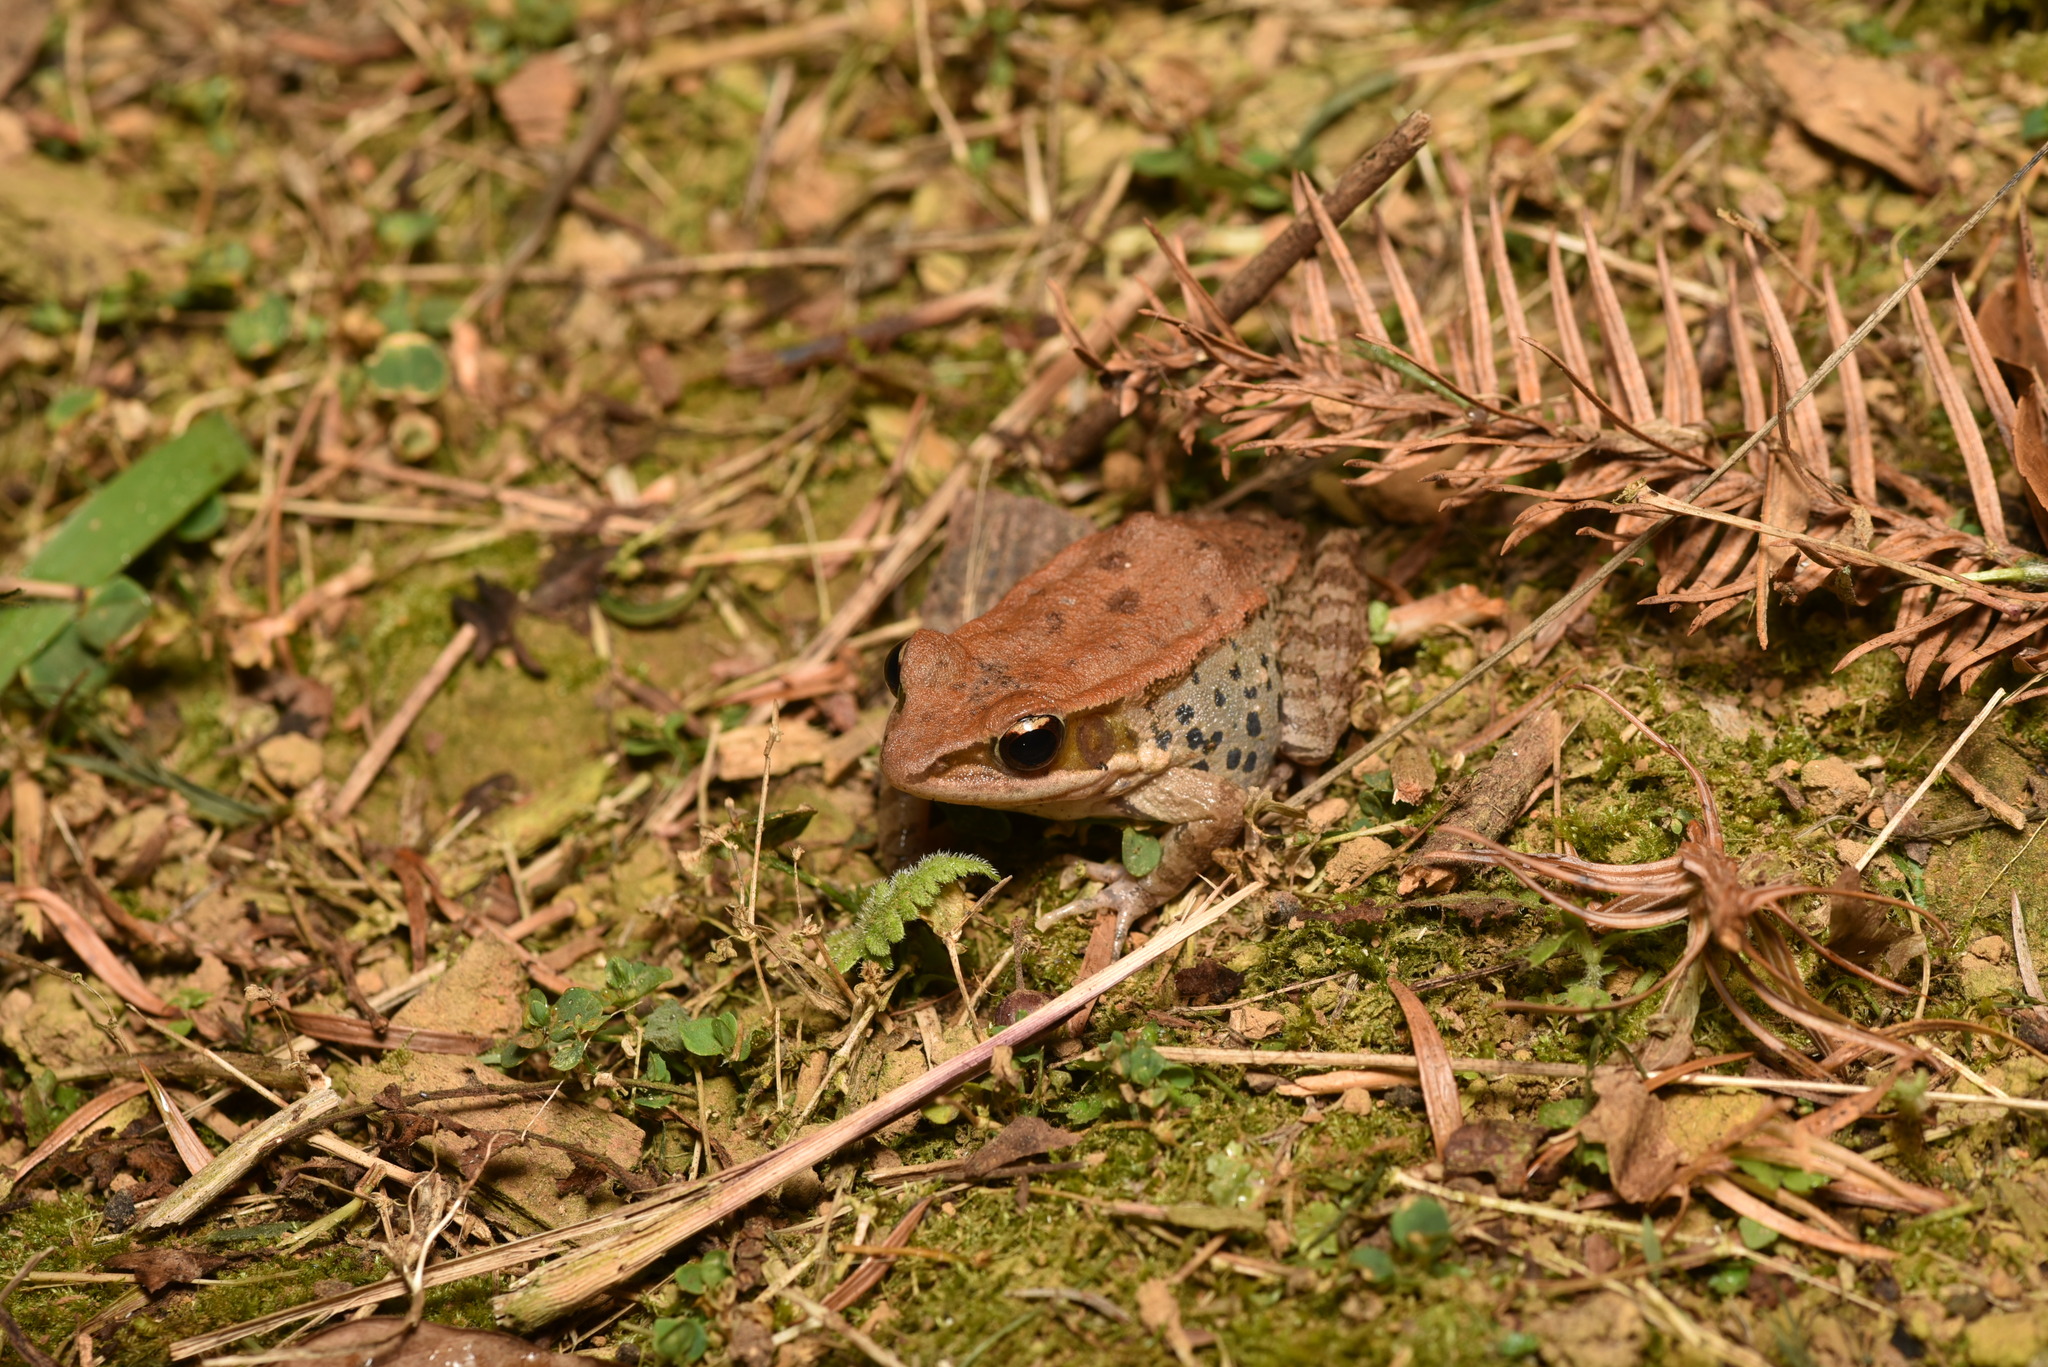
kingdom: Animalia
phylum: Chordata
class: Amphibia
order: Anura
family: Ranidae
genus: Hylarana
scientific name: Hylarana latouchii
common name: Broad-folded frog
